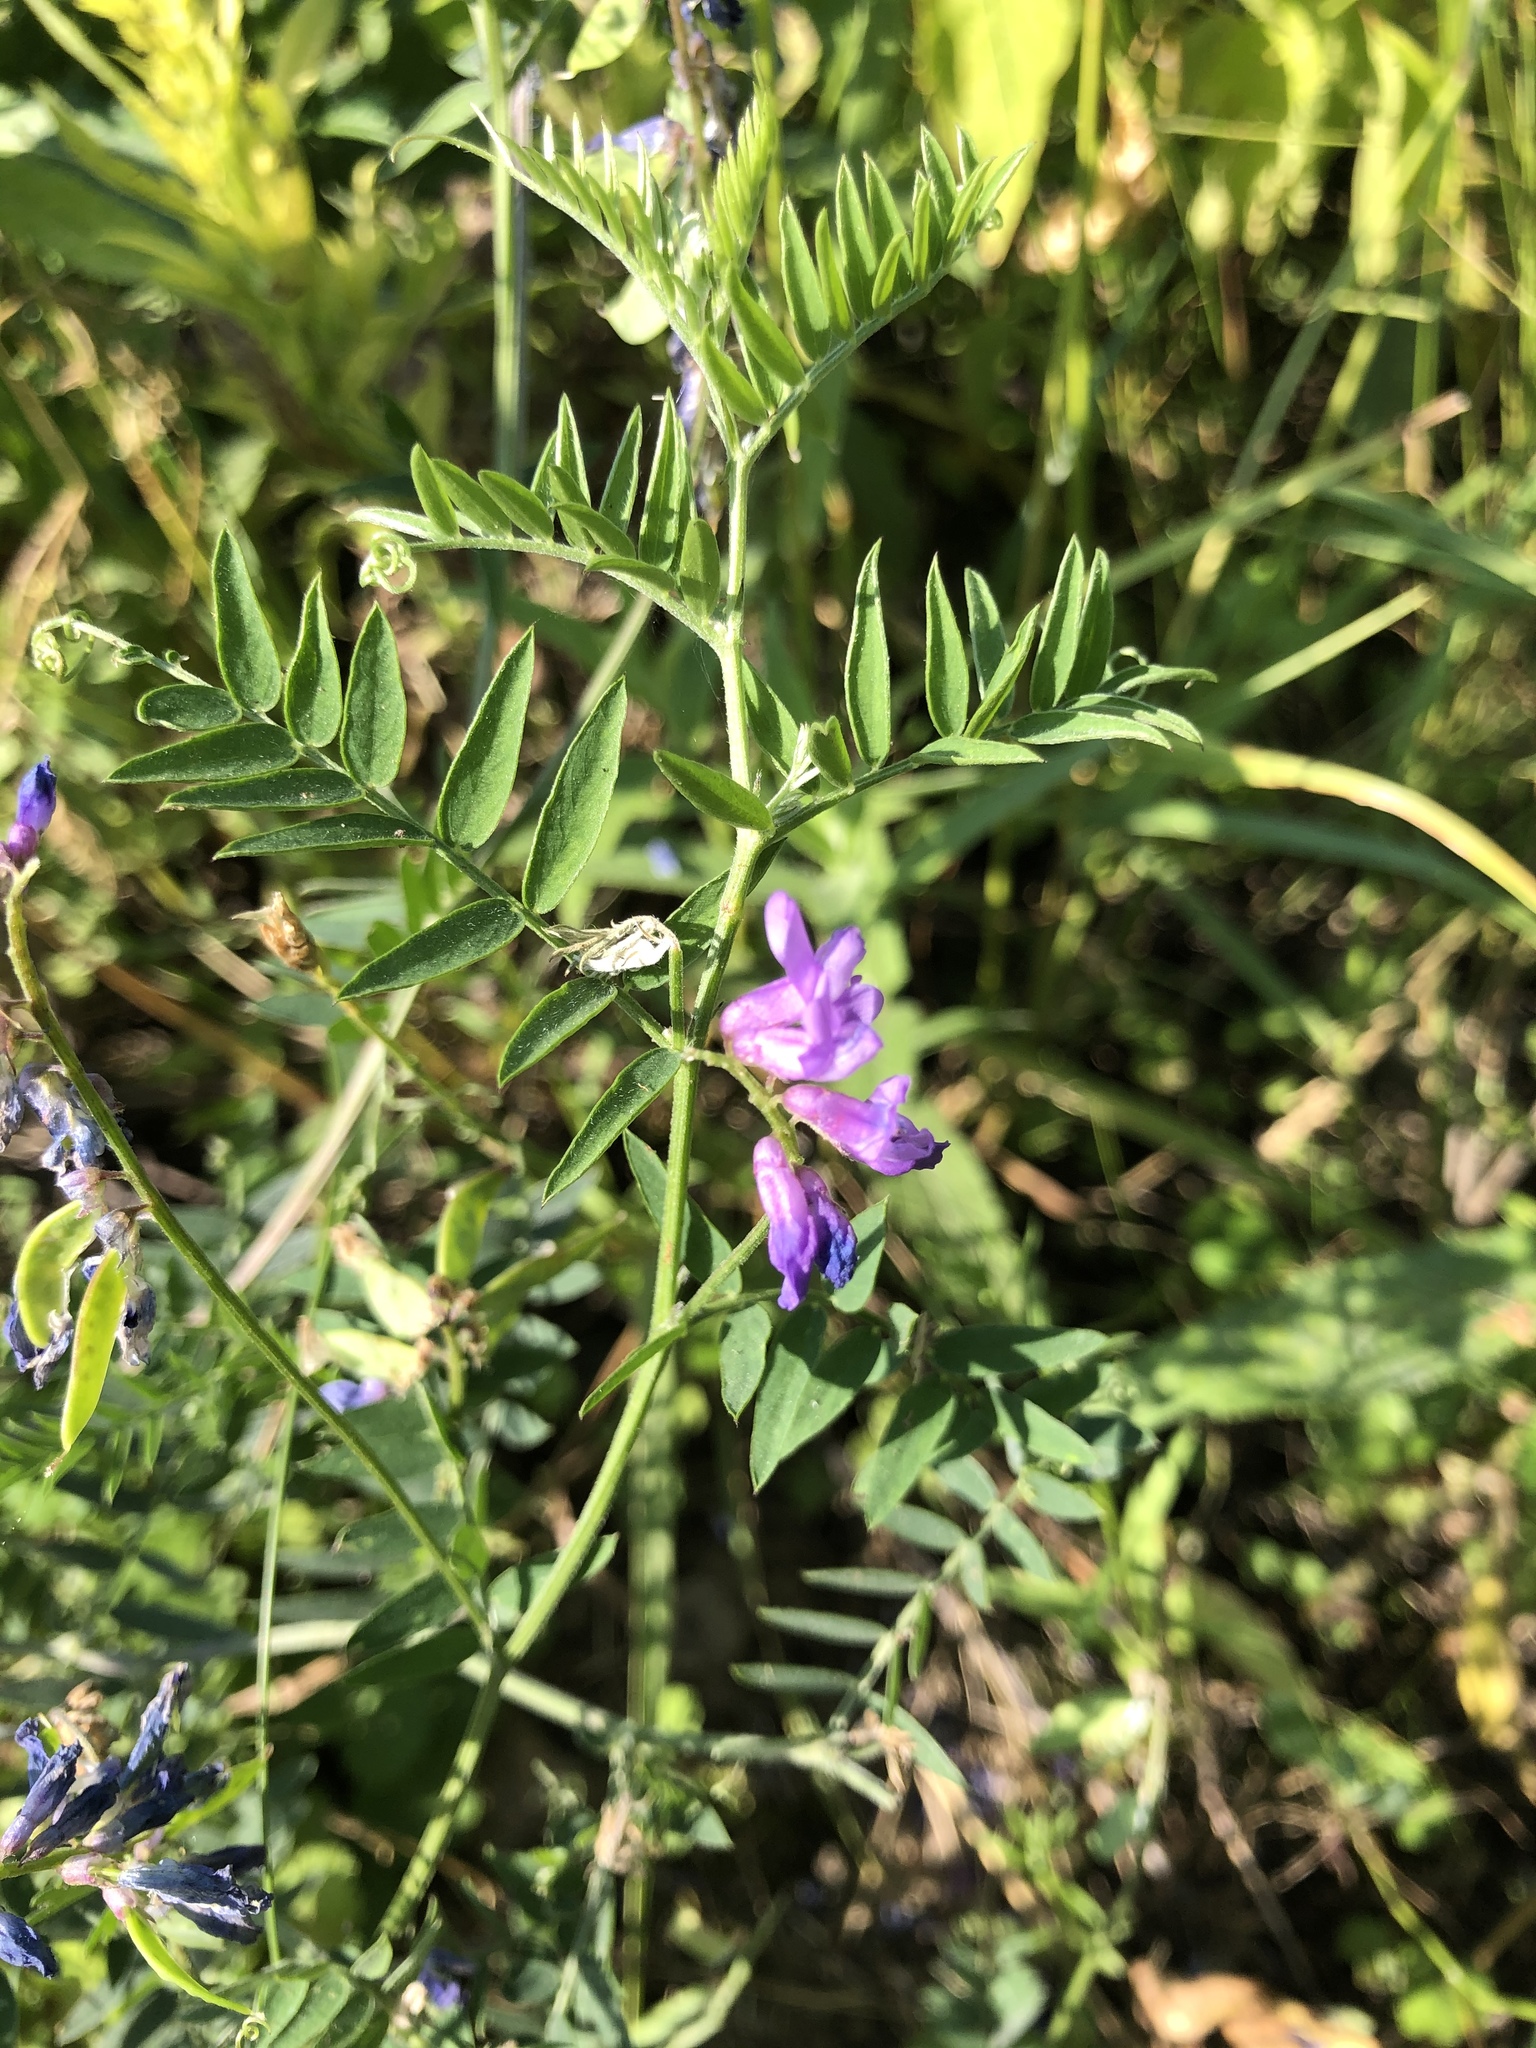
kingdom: Plantae
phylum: Tracheophyta
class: Magnoliopsida
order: Fabales
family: Fabaceae
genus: Vicia
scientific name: Vicia cracca
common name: Bird vetch
